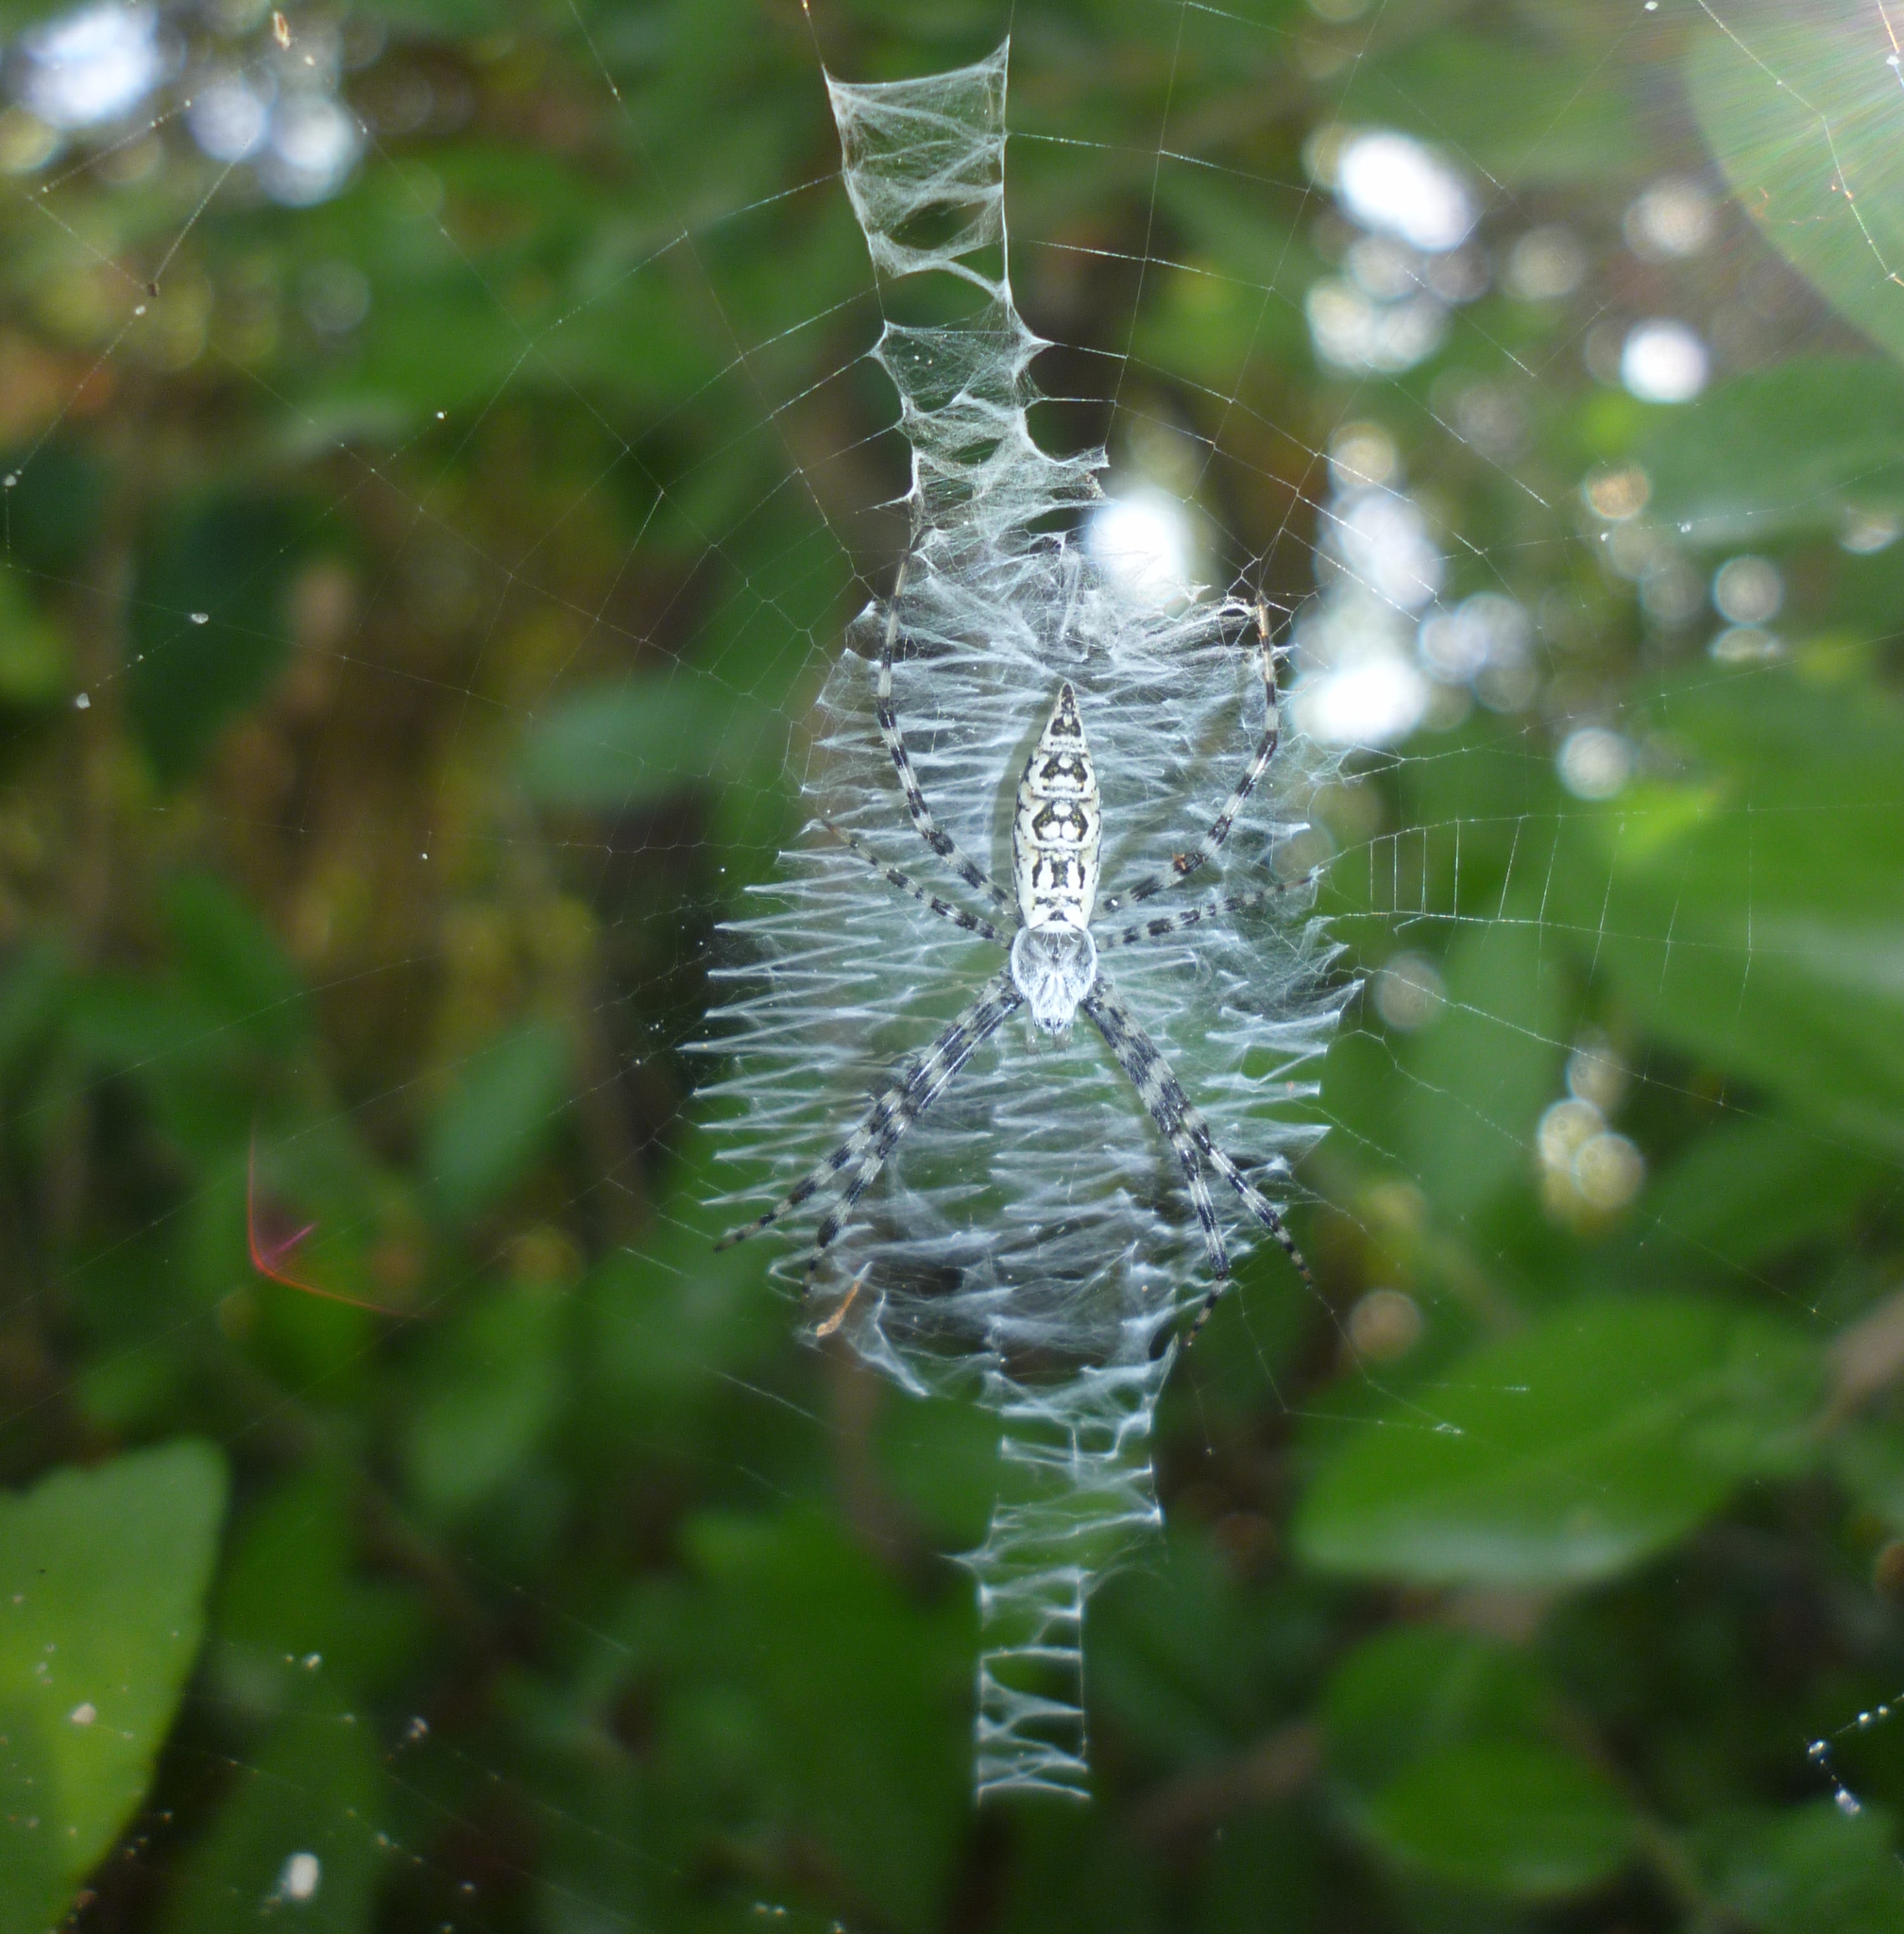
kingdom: Animalia
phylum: Arthropoda
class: Arachnida
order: Araneae
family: Araneidae
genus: Argiope
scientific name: Argiope aurantia
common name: Orb weavers
